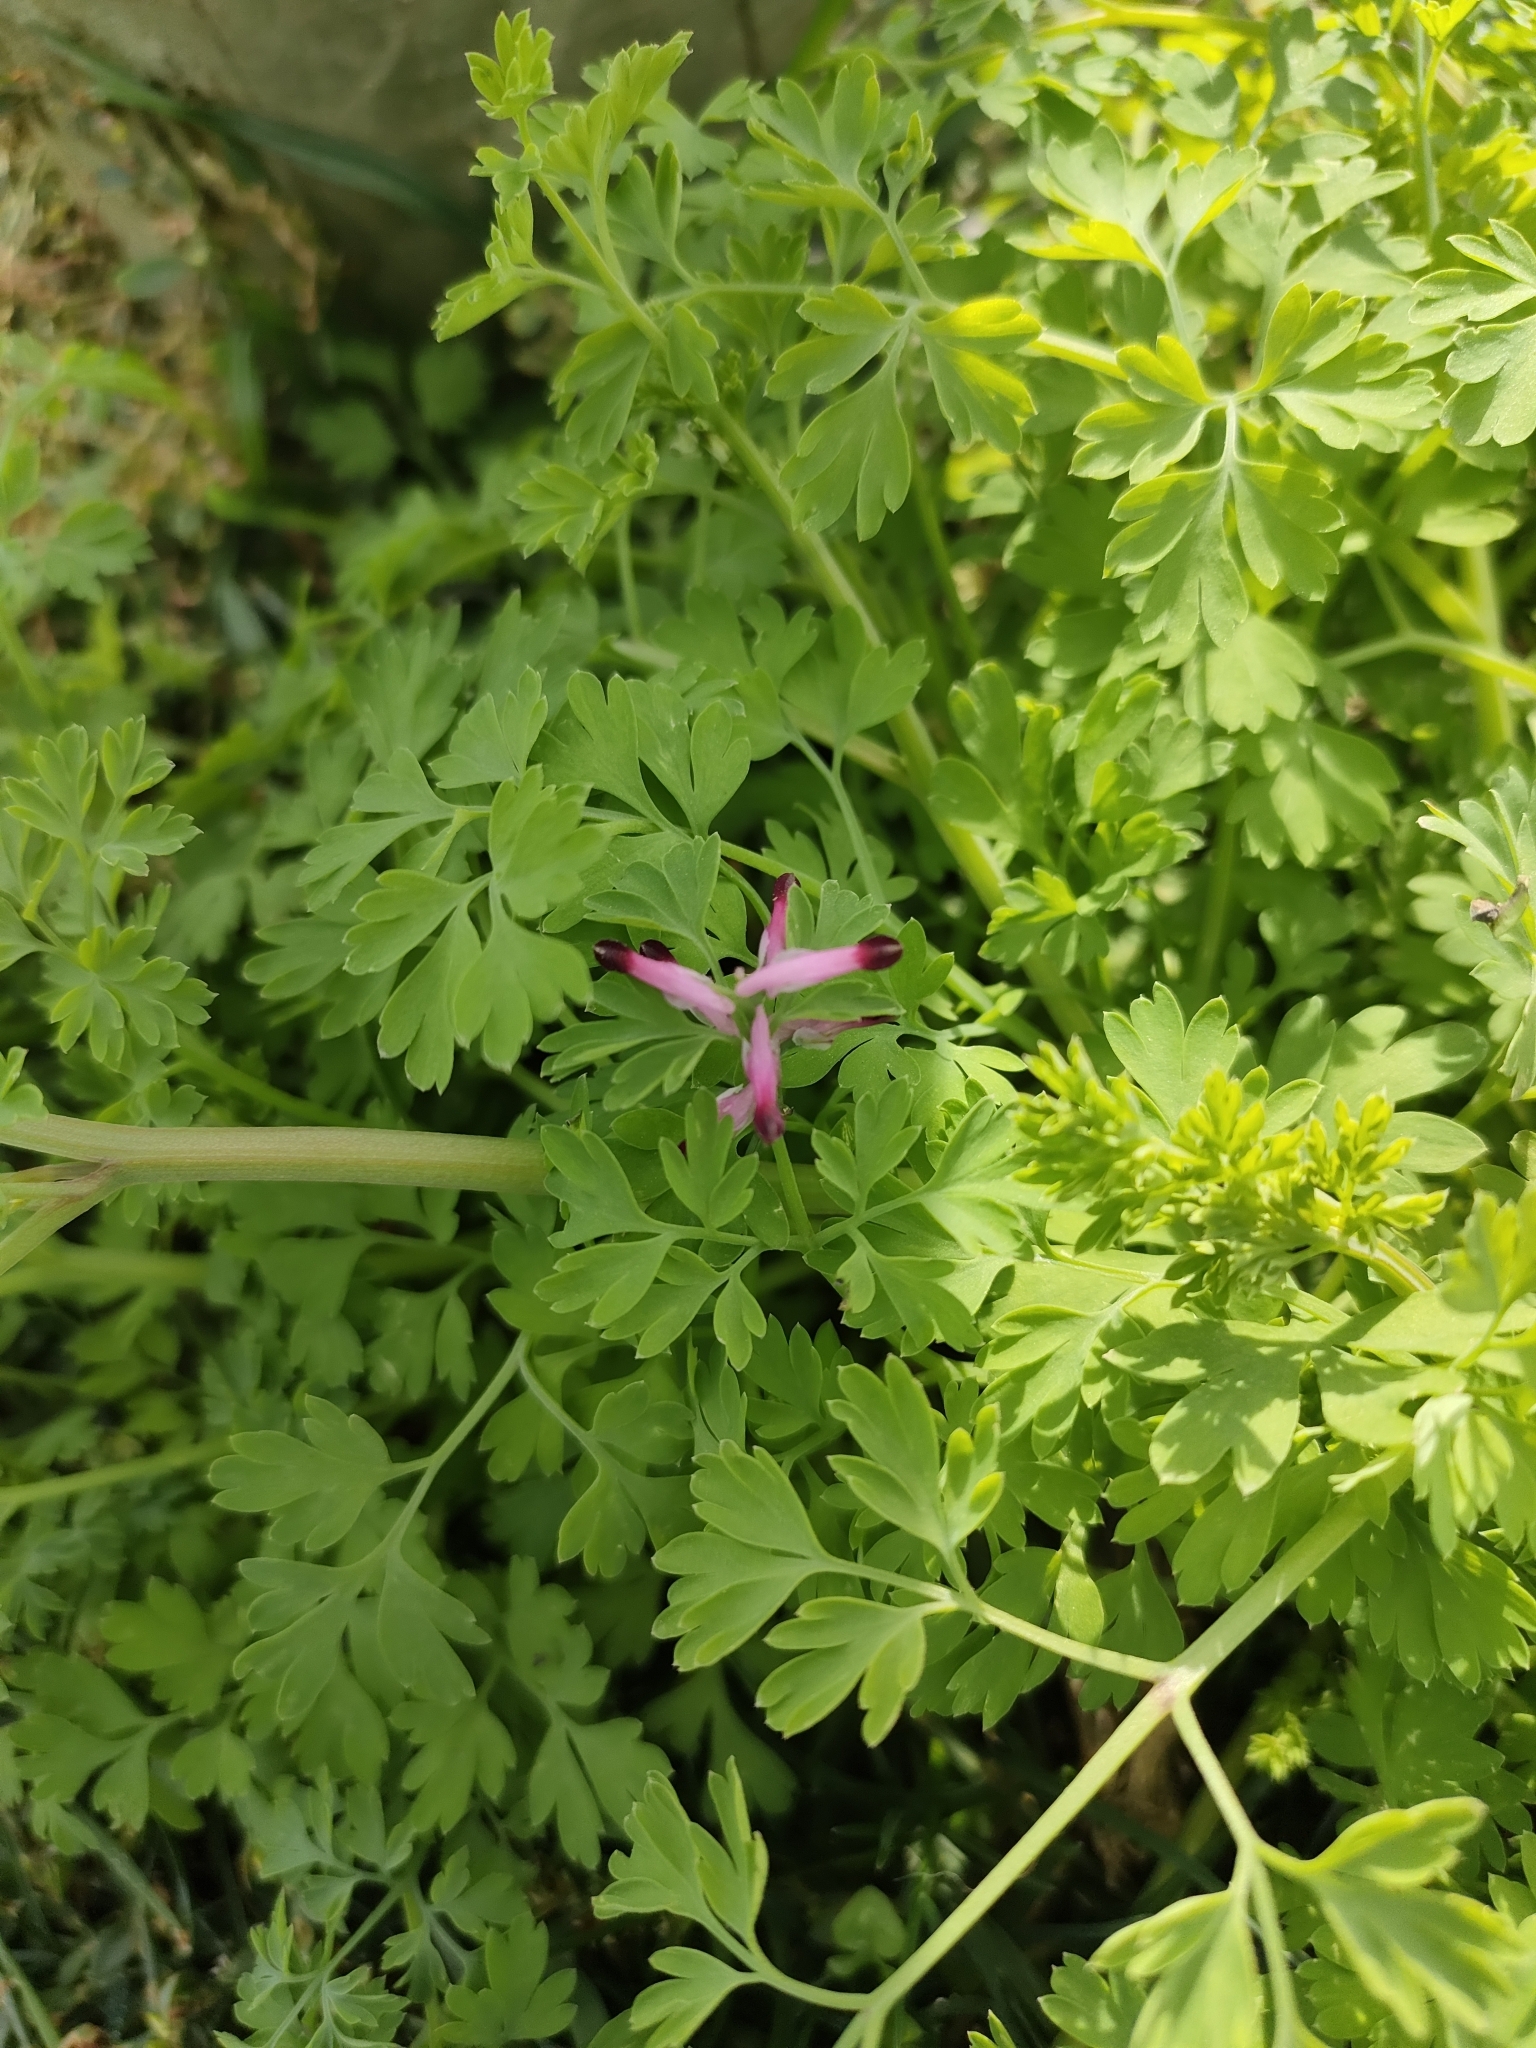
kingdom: Plantae
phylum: Tracheophyta
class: Magnoliopsida
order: Ranunculales
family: Papaveraceae
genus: Fumaria
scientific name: Fumaria muralis
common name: Common ramping-fumitory
